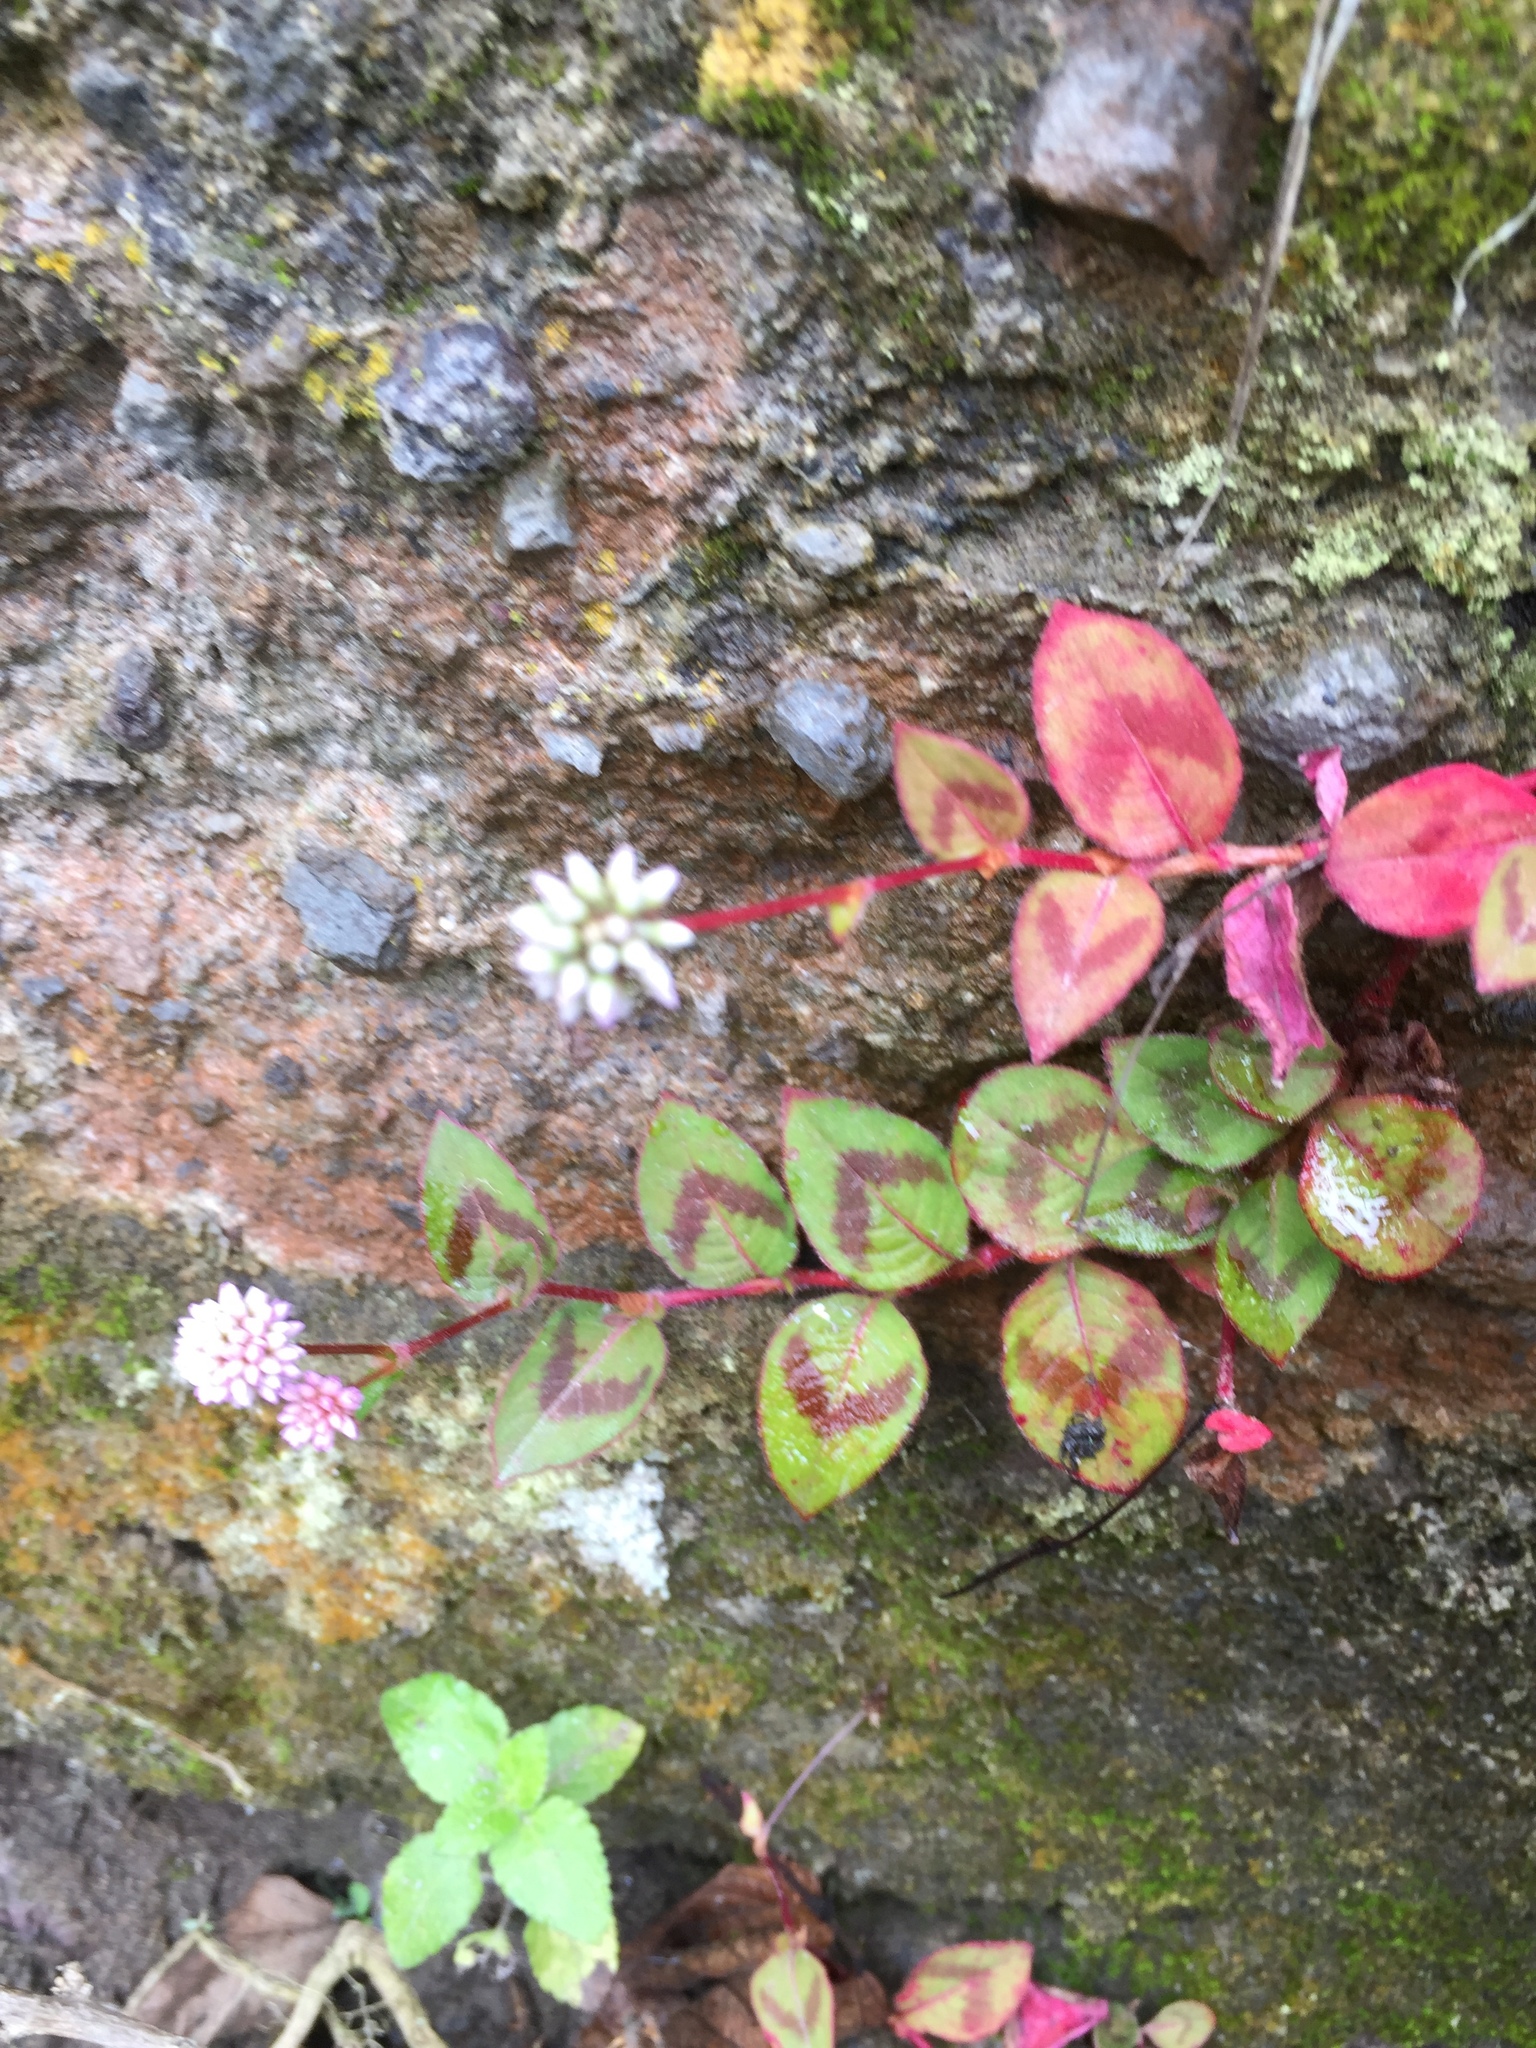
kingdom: Plantae
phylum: Tracheophyta
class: Magnoliopsida
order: Caryophyllales
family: Polygonaceae
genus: Persicaria
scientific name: Persicaria capitata
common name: Pinkhead smartweed
